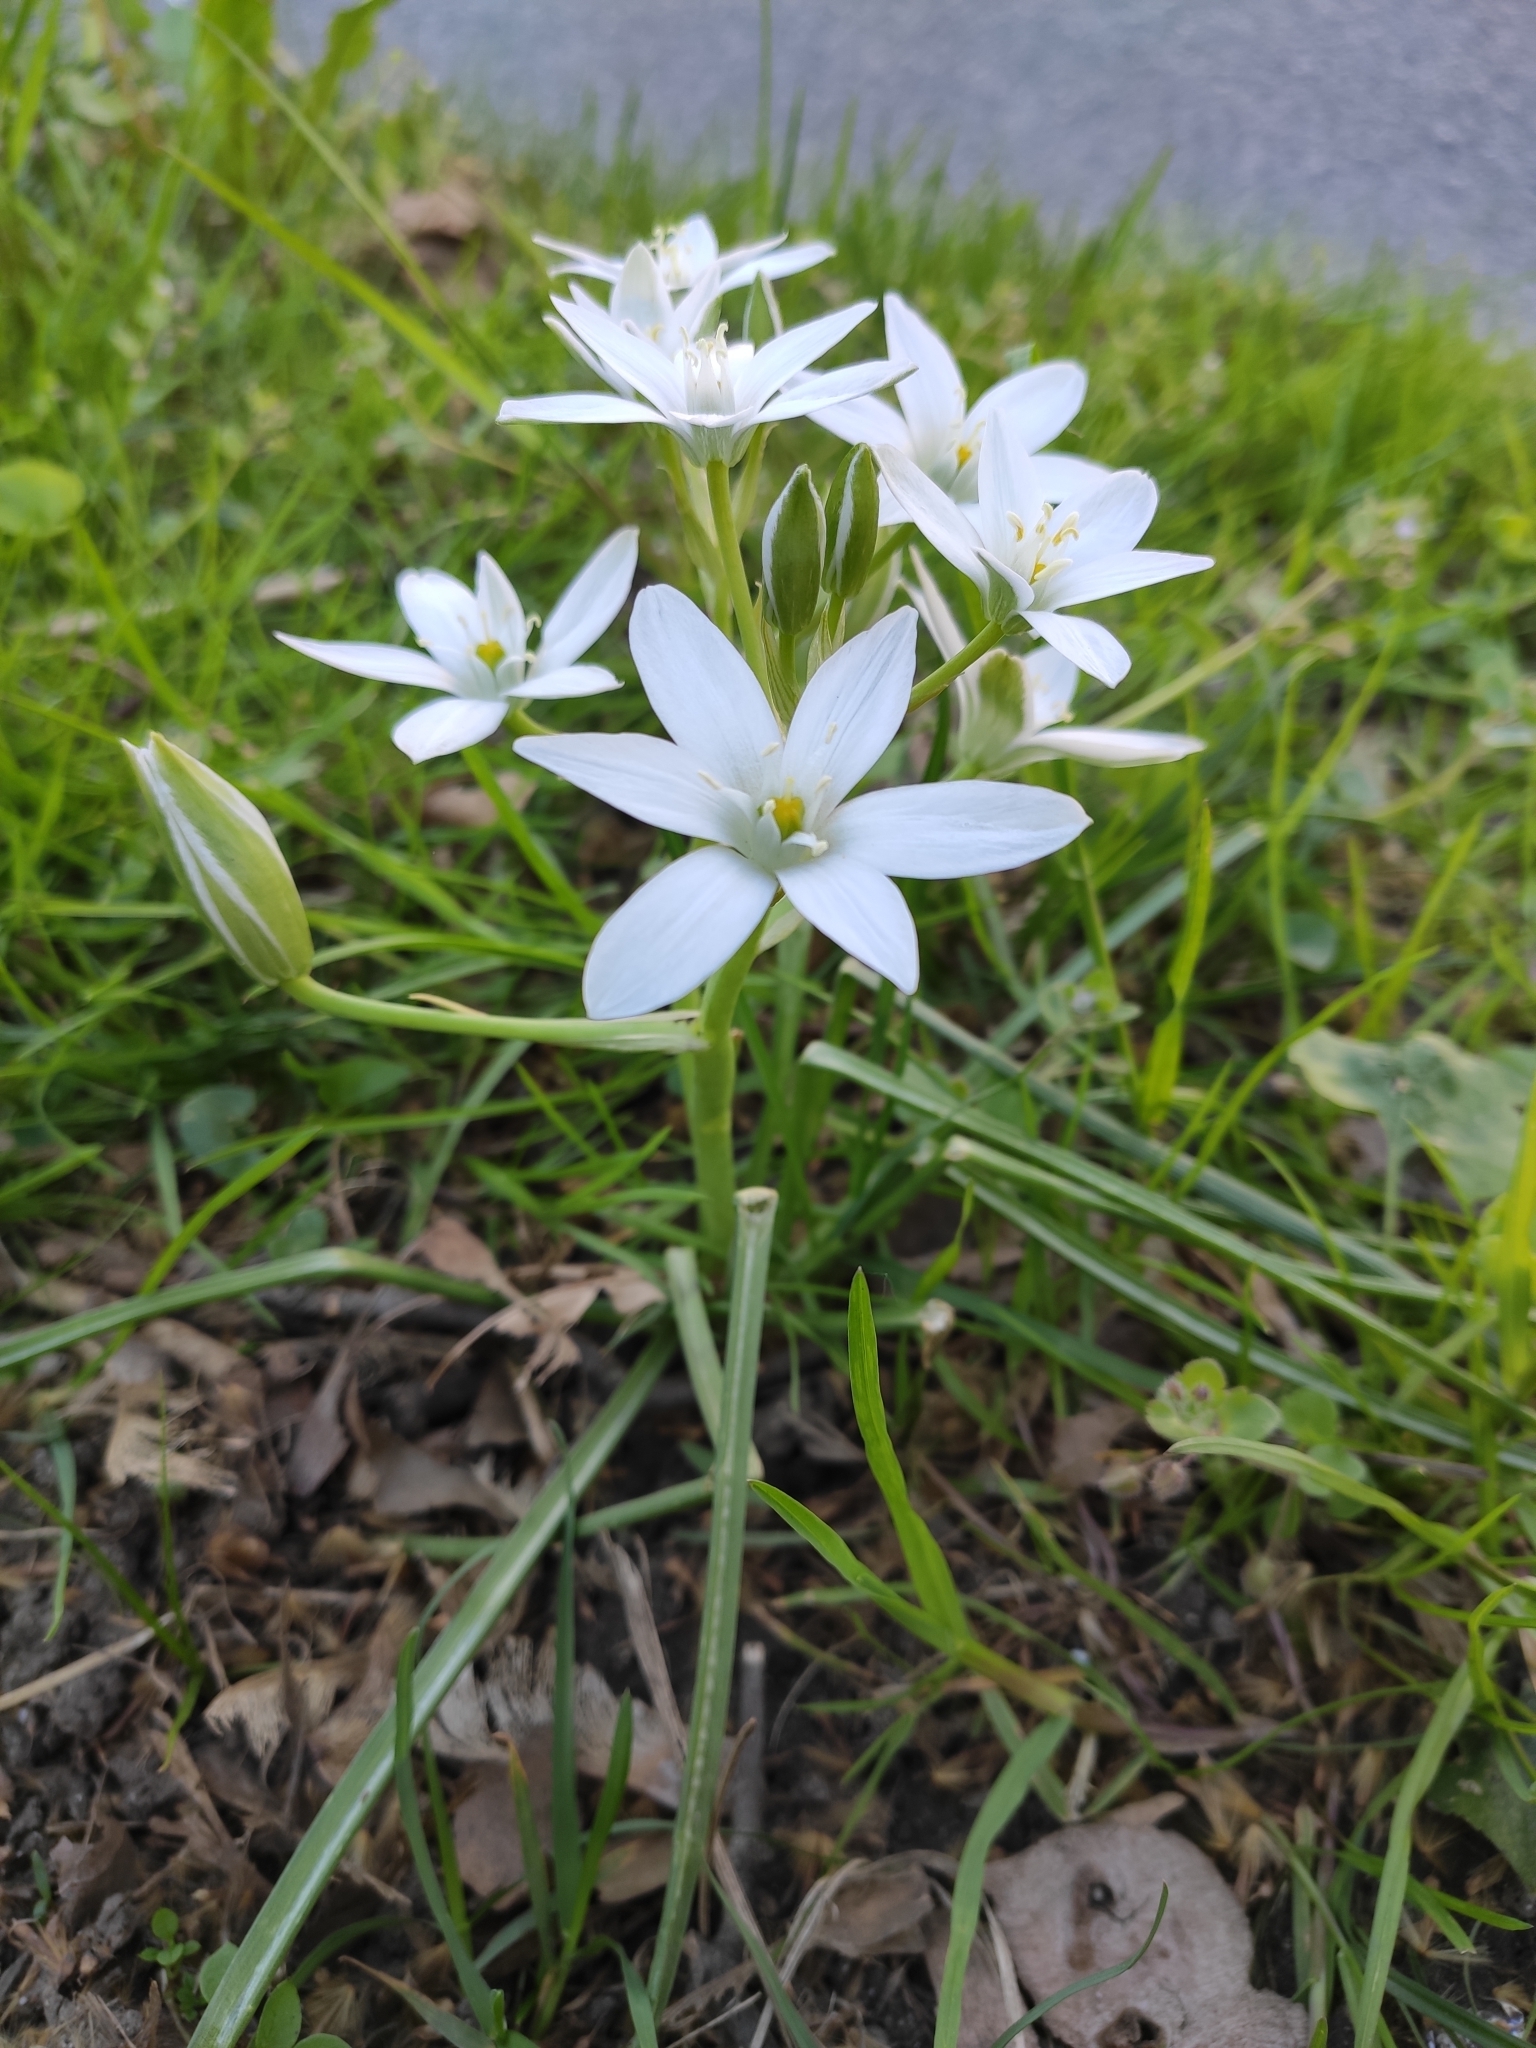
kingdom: Plantae
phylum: Tracheophyta
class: Liliopsida
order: Asparagales
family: Asparagaceae
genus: Ornithogalum
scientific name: Ornithogalum umbellatum
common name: Garden star-of-bethlehem
